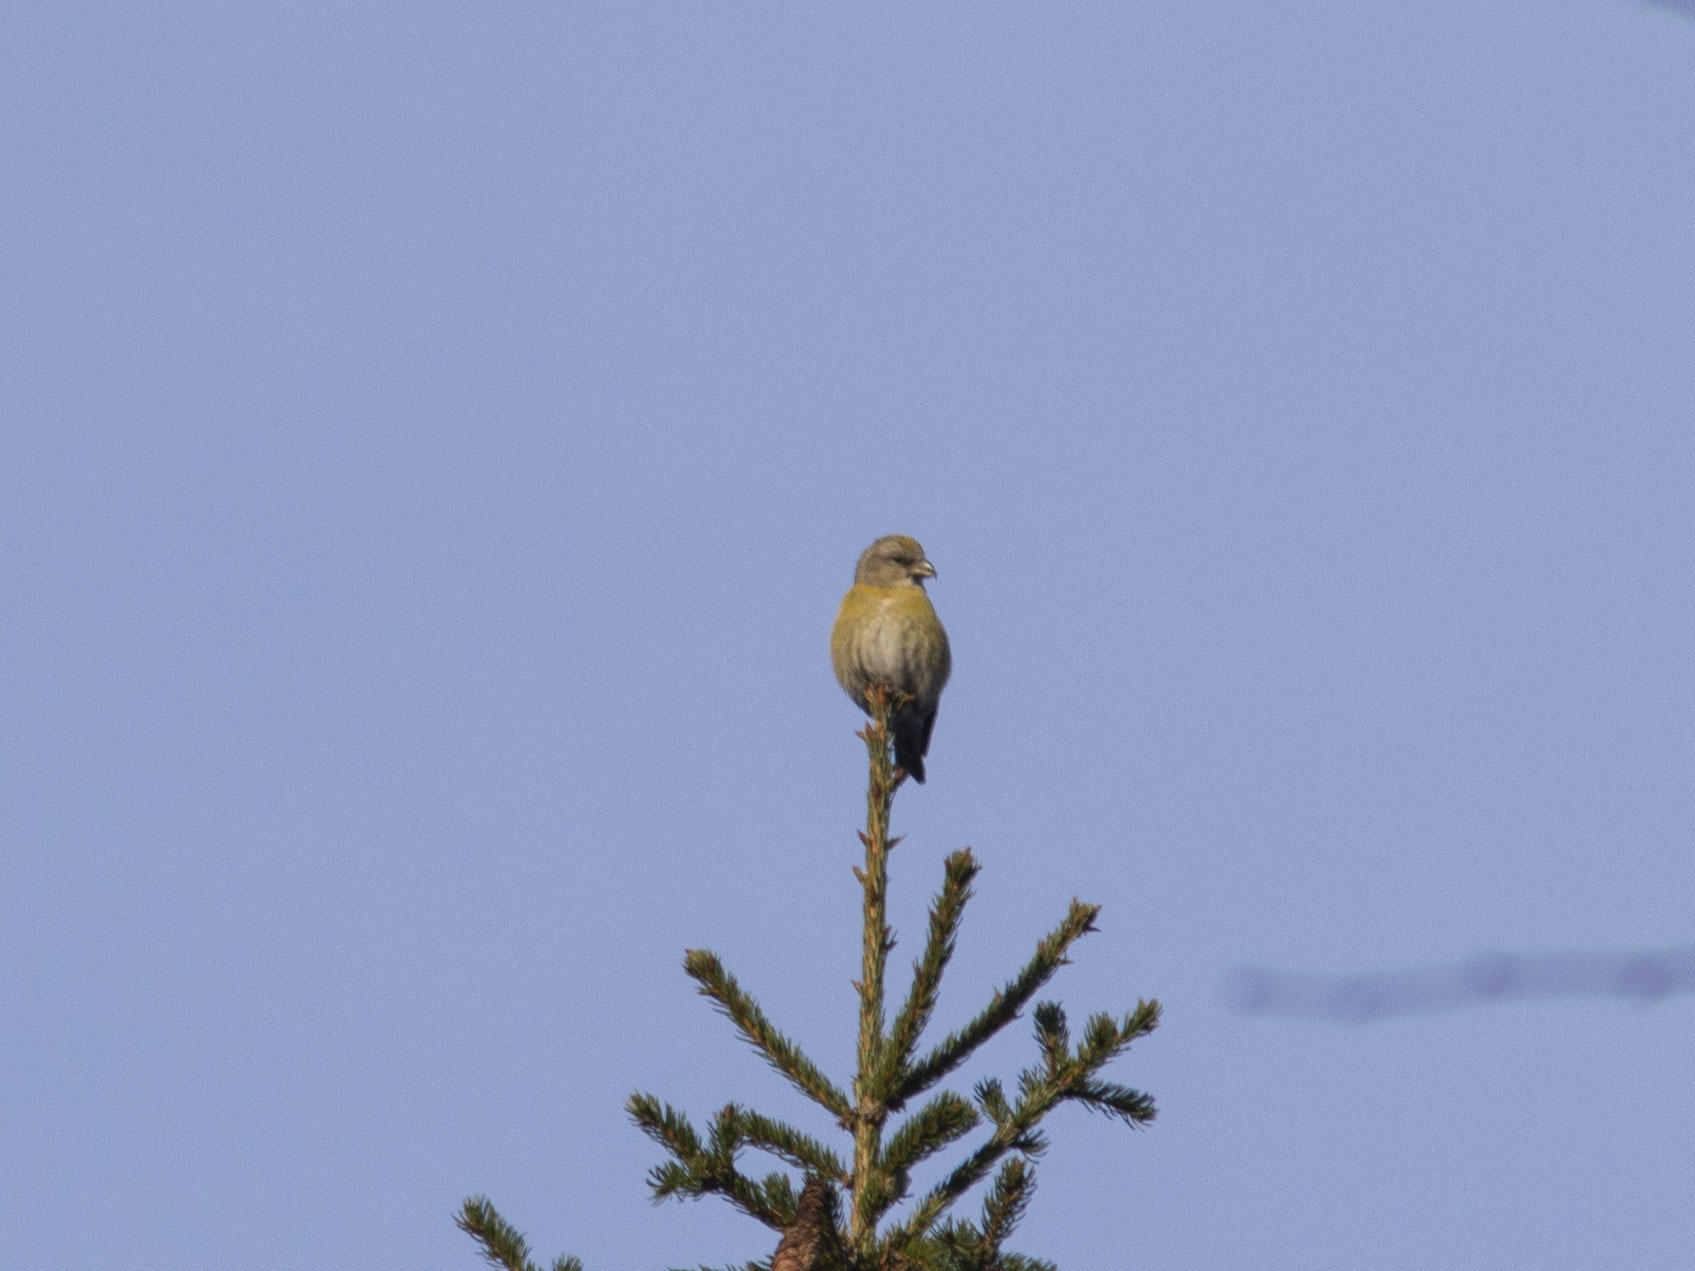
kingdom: Animalia
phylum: Chordata
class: Aves
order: Passeriformes
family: Fringillidae
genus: Loxia
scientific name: Loxia curvirostra
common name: Red crossbill
